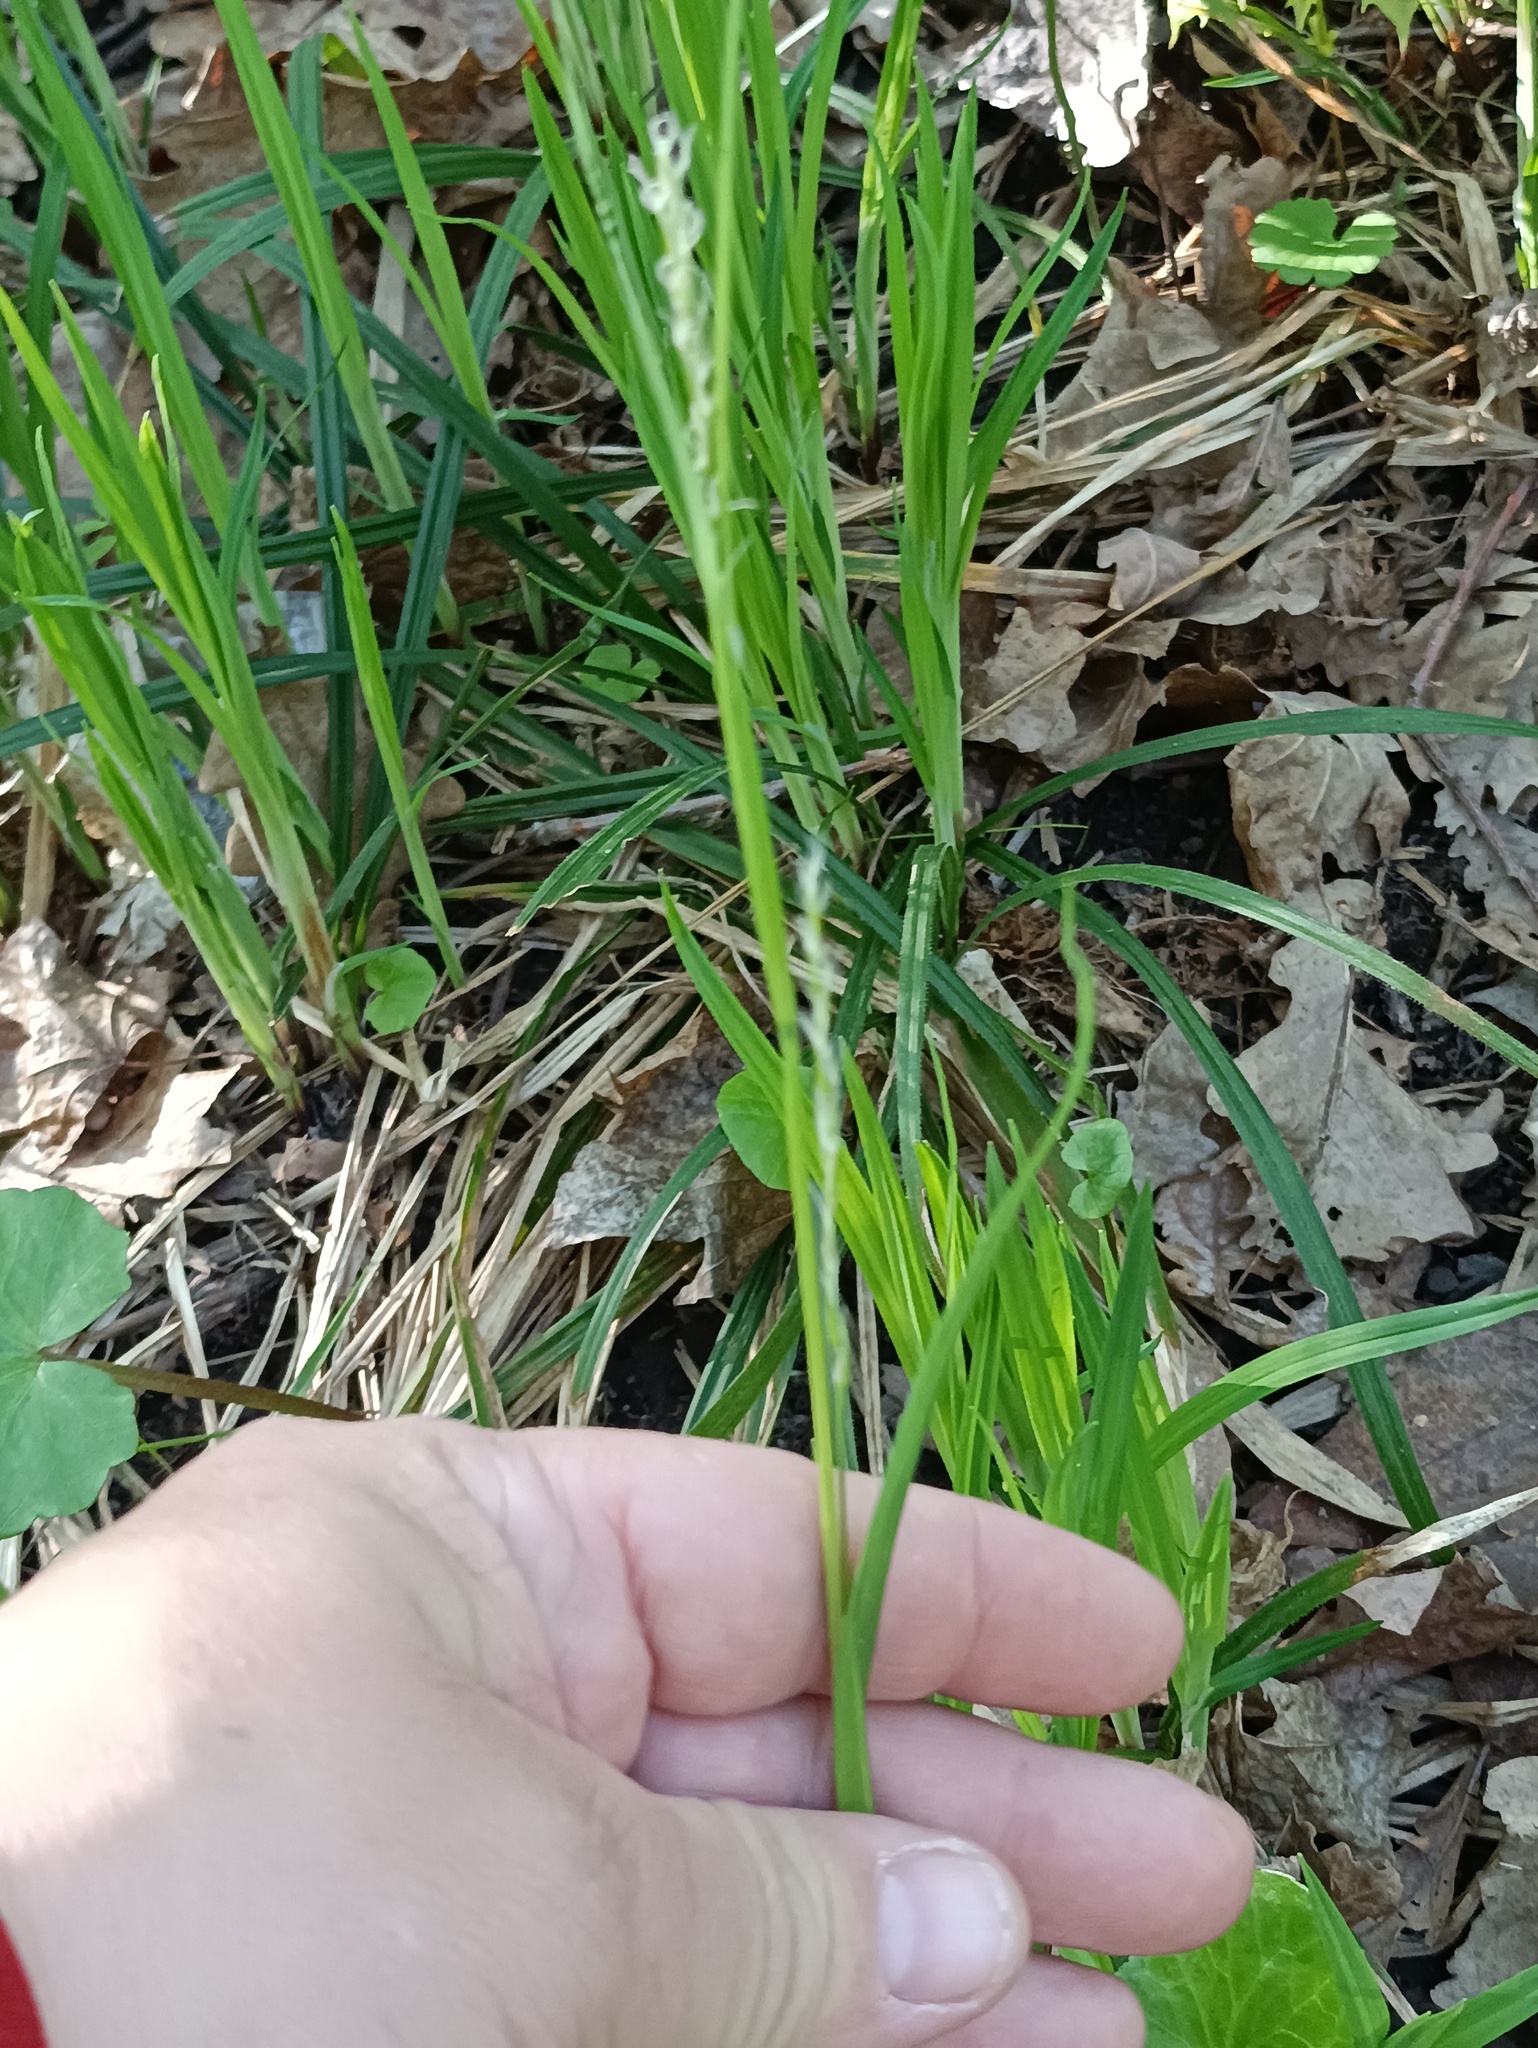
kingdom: Plantae
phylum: Tracheophyta
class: Liliopsida
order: Poales
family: Cyperaceae
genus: Carex
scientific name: Carex pilosa
